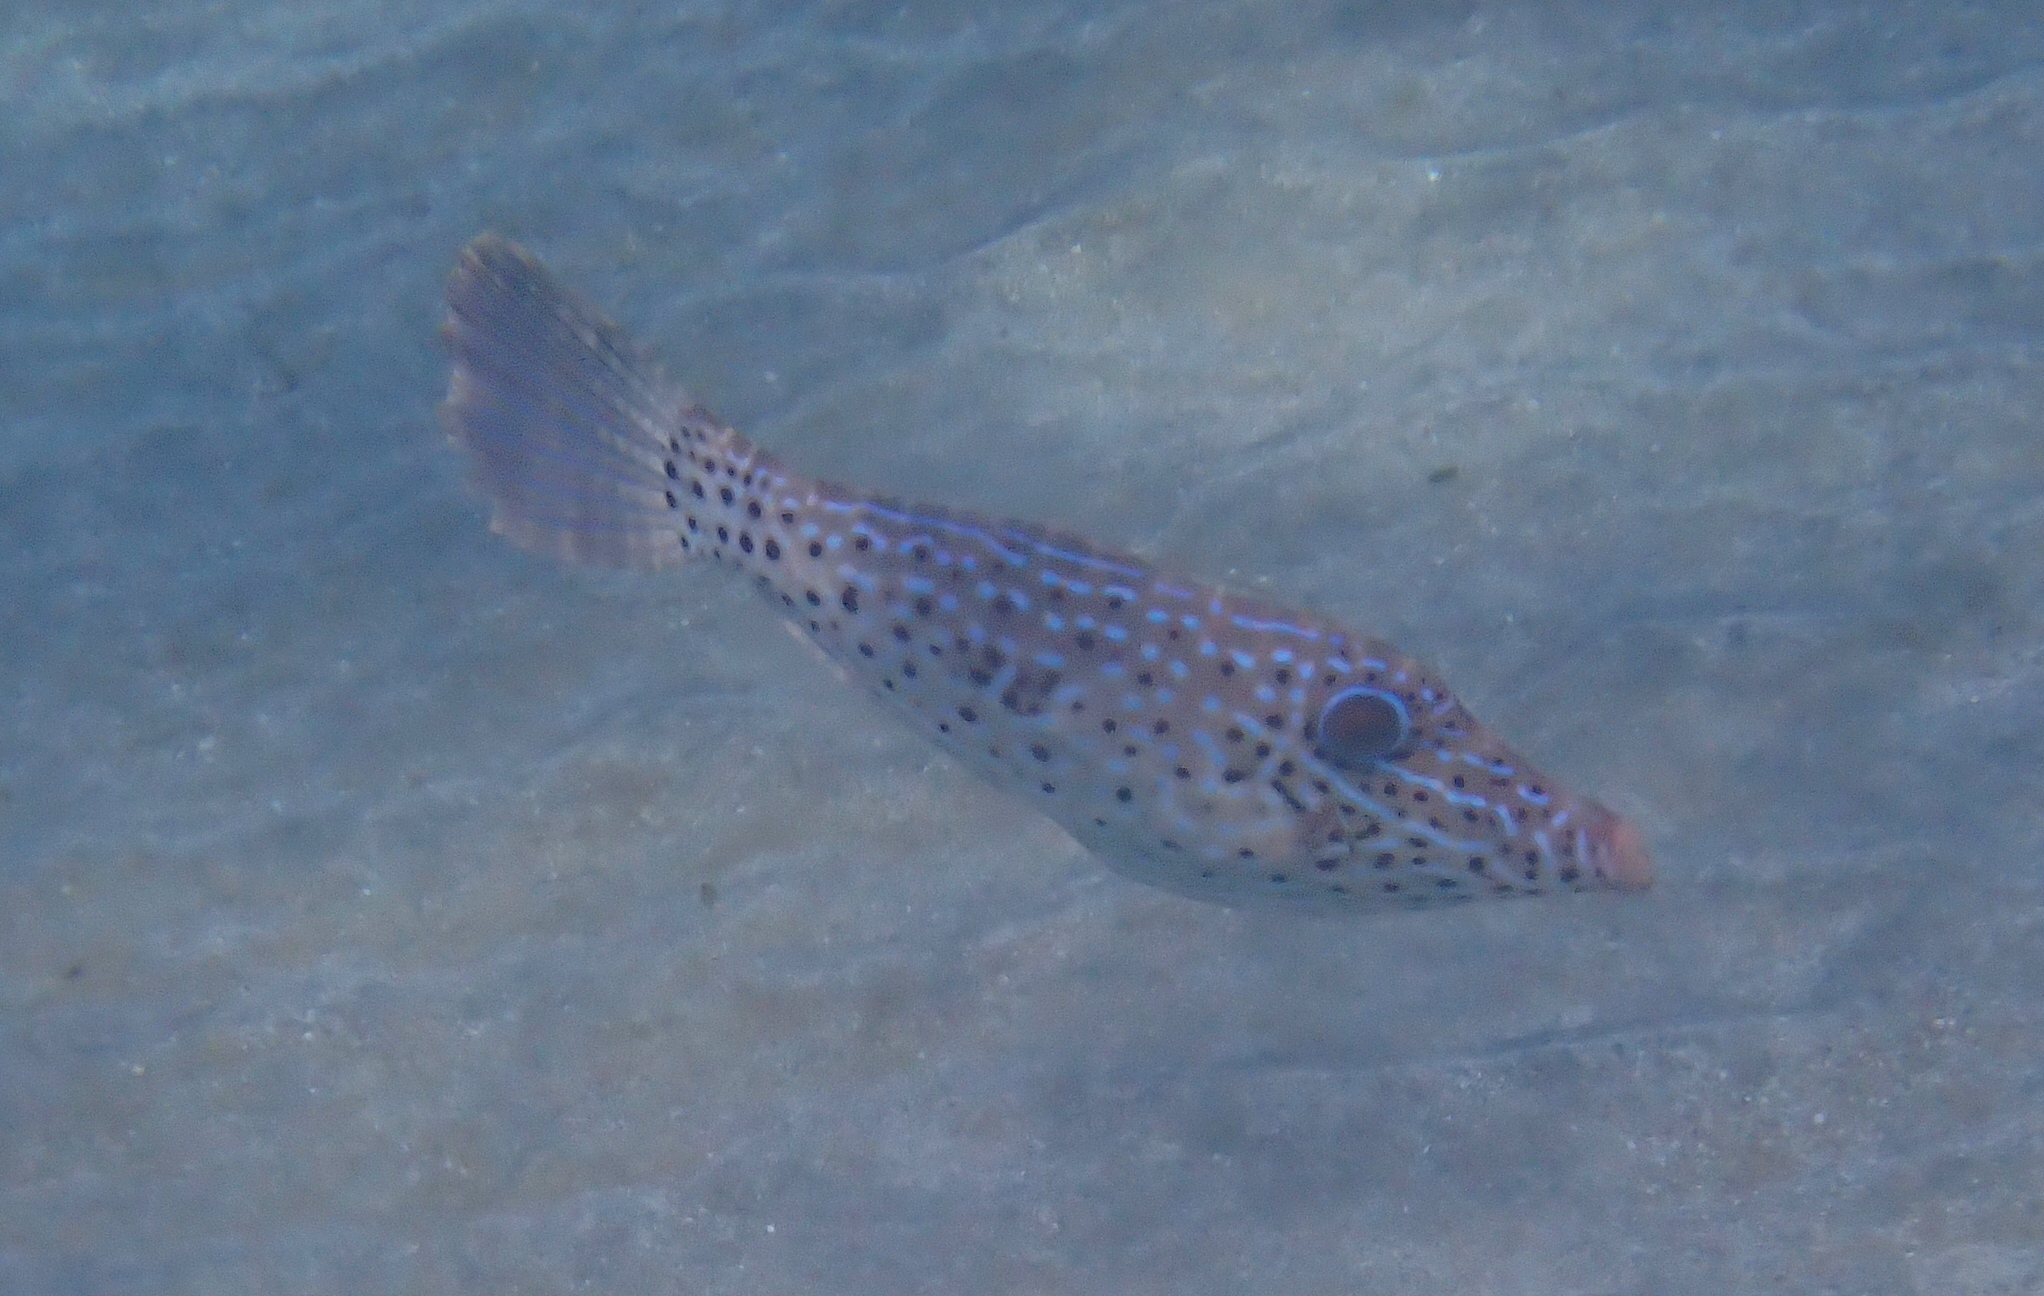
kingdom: Animalia
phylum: Chordata
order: Tetraodontiformes
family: Monacanthidae
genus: Aluterus
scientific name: Aluterus scriptus
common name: Scribbled leatherjacket filefish
